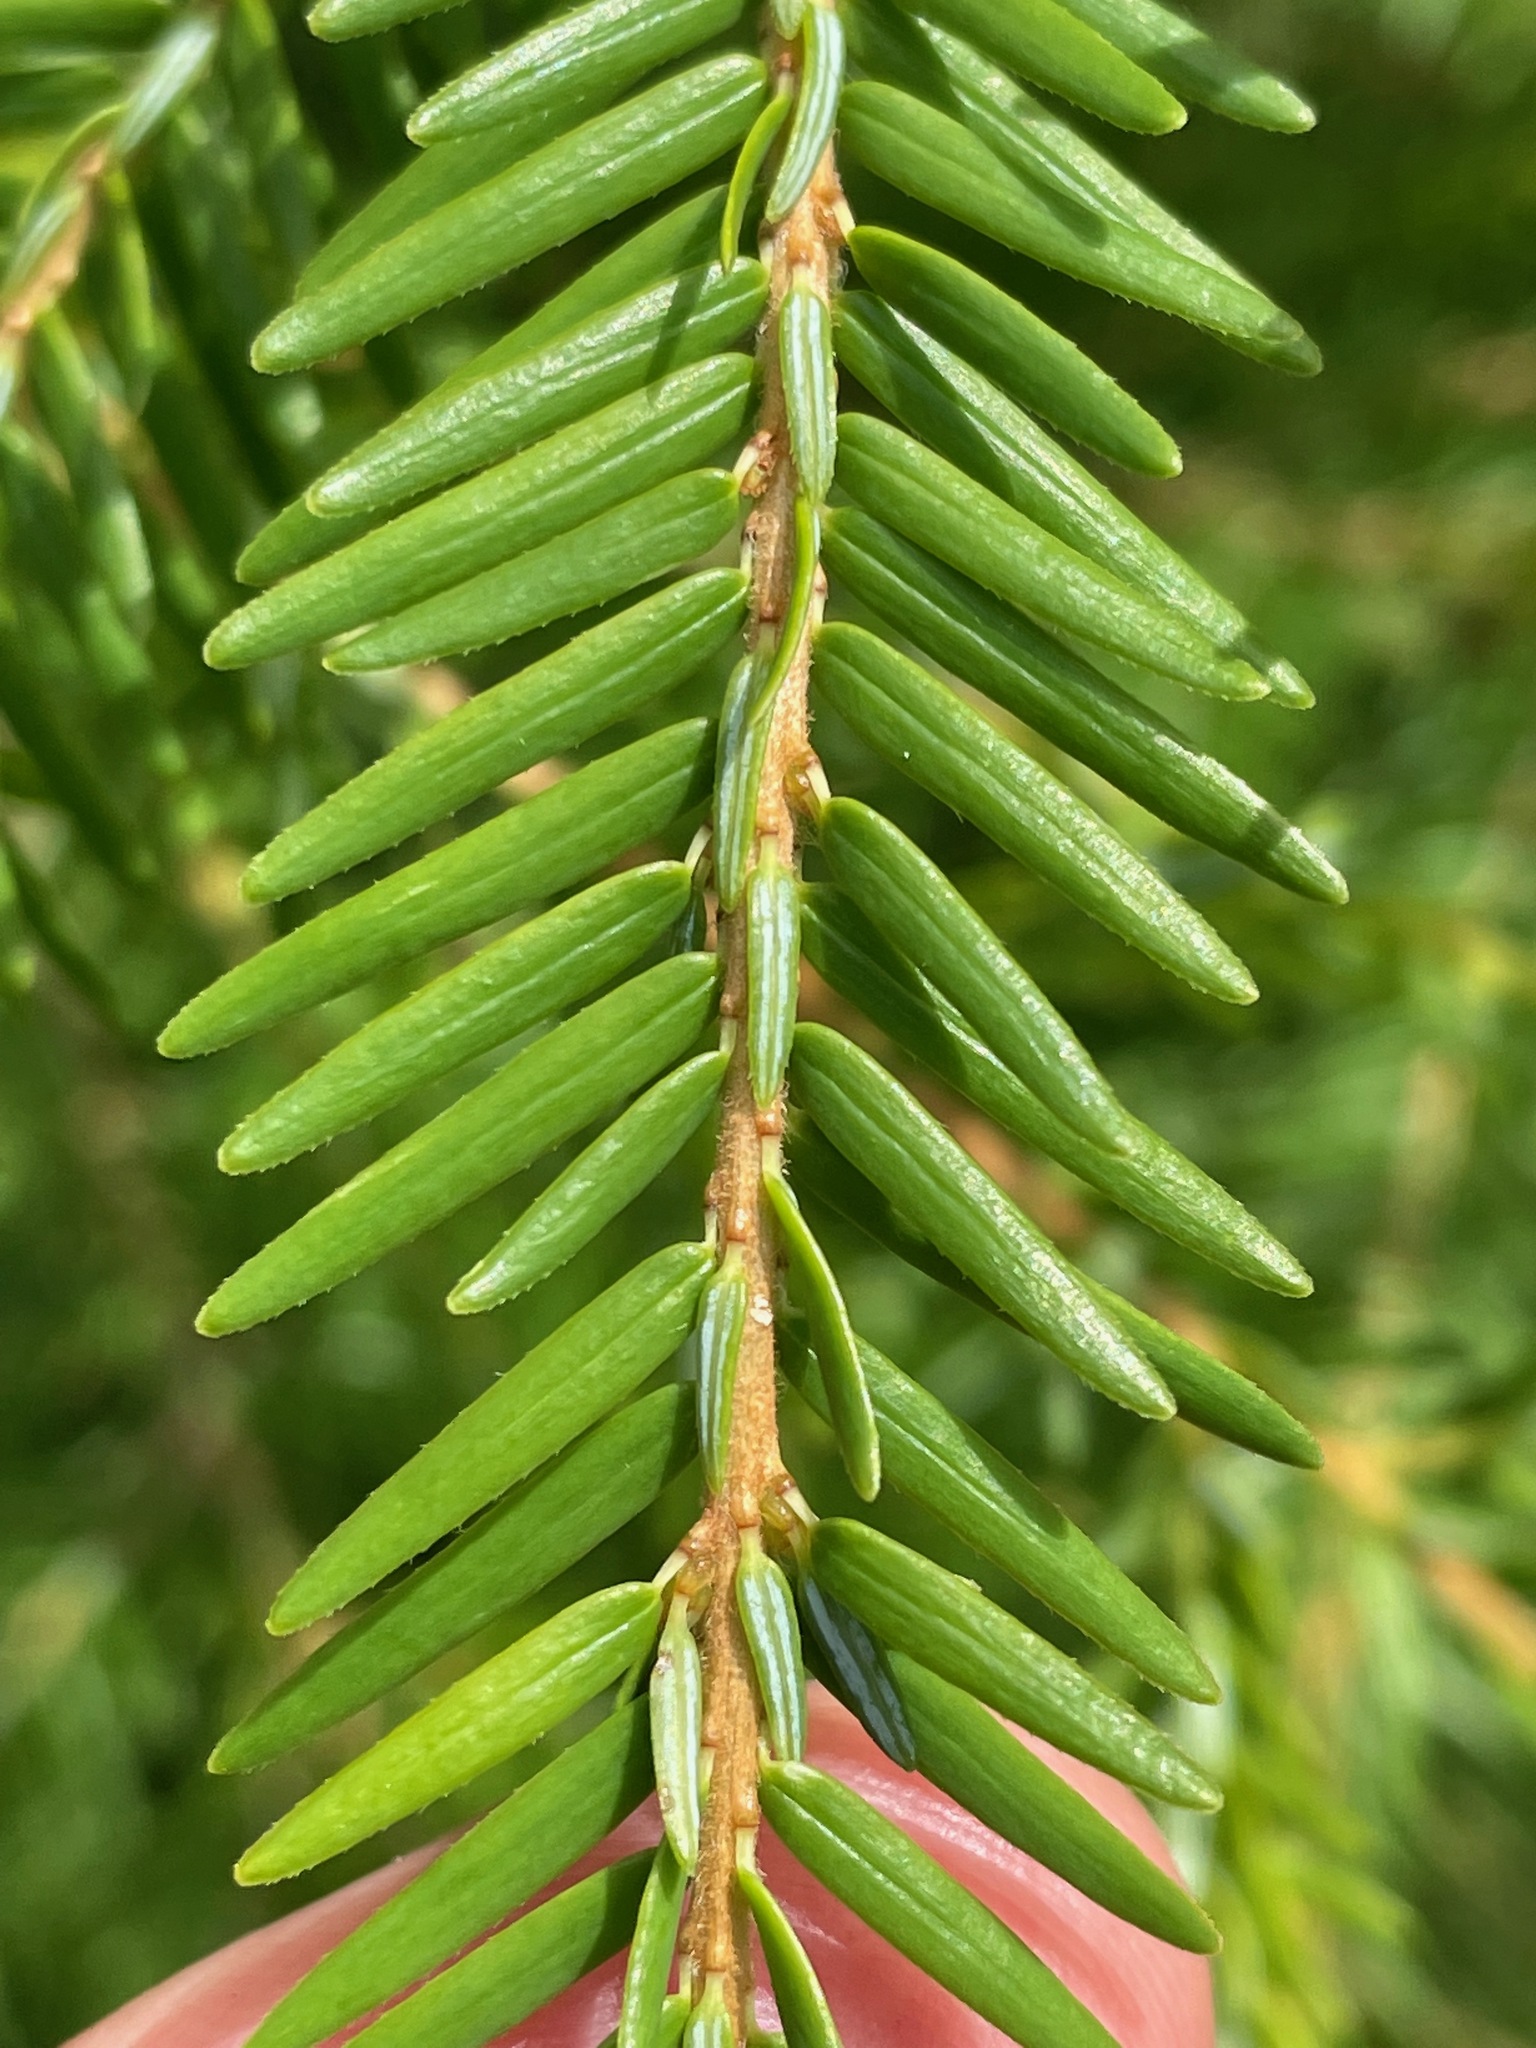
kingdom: Plantae
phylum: Tracheophyta
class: Pinopsida
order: Pinales
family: Pinaceae
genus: Tsuga
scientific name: Tsuga canadensis
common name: Eastern hemlock
